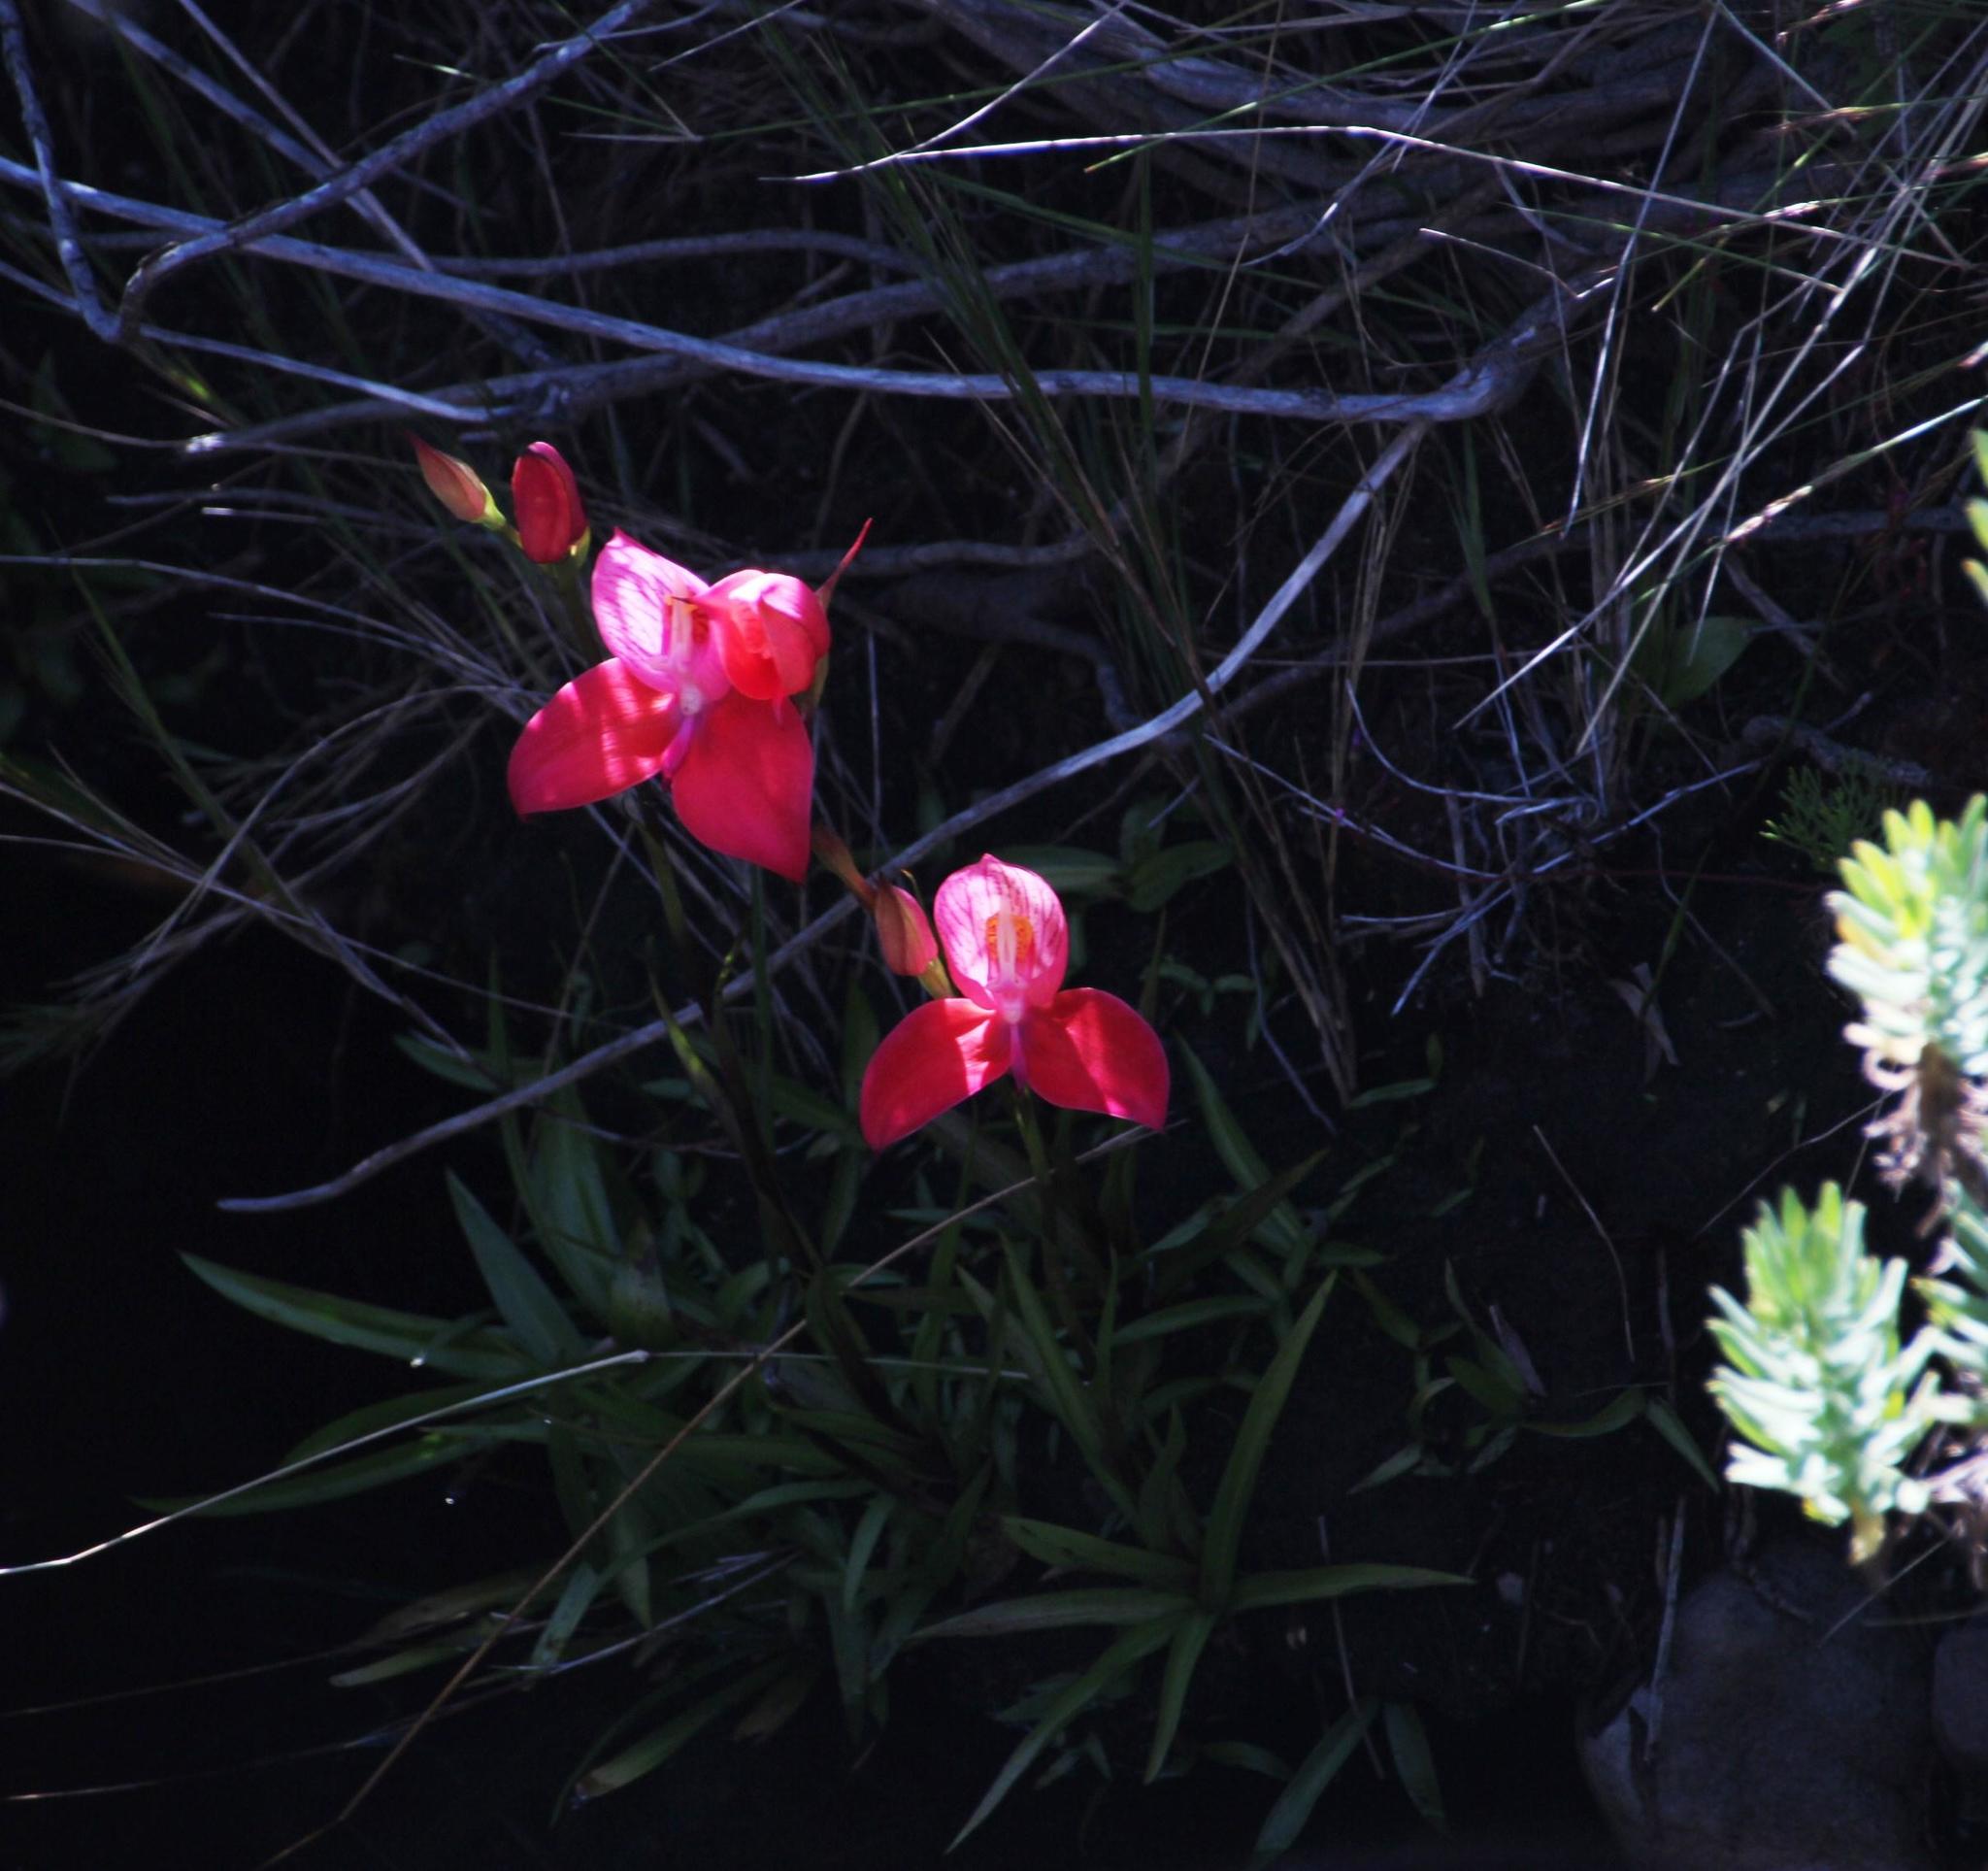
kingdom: Plantae
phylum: Tracheophyta
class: Liliopsida
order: Asparagales
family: Orchidaceae
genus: Disa
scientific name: Disa uniflora
